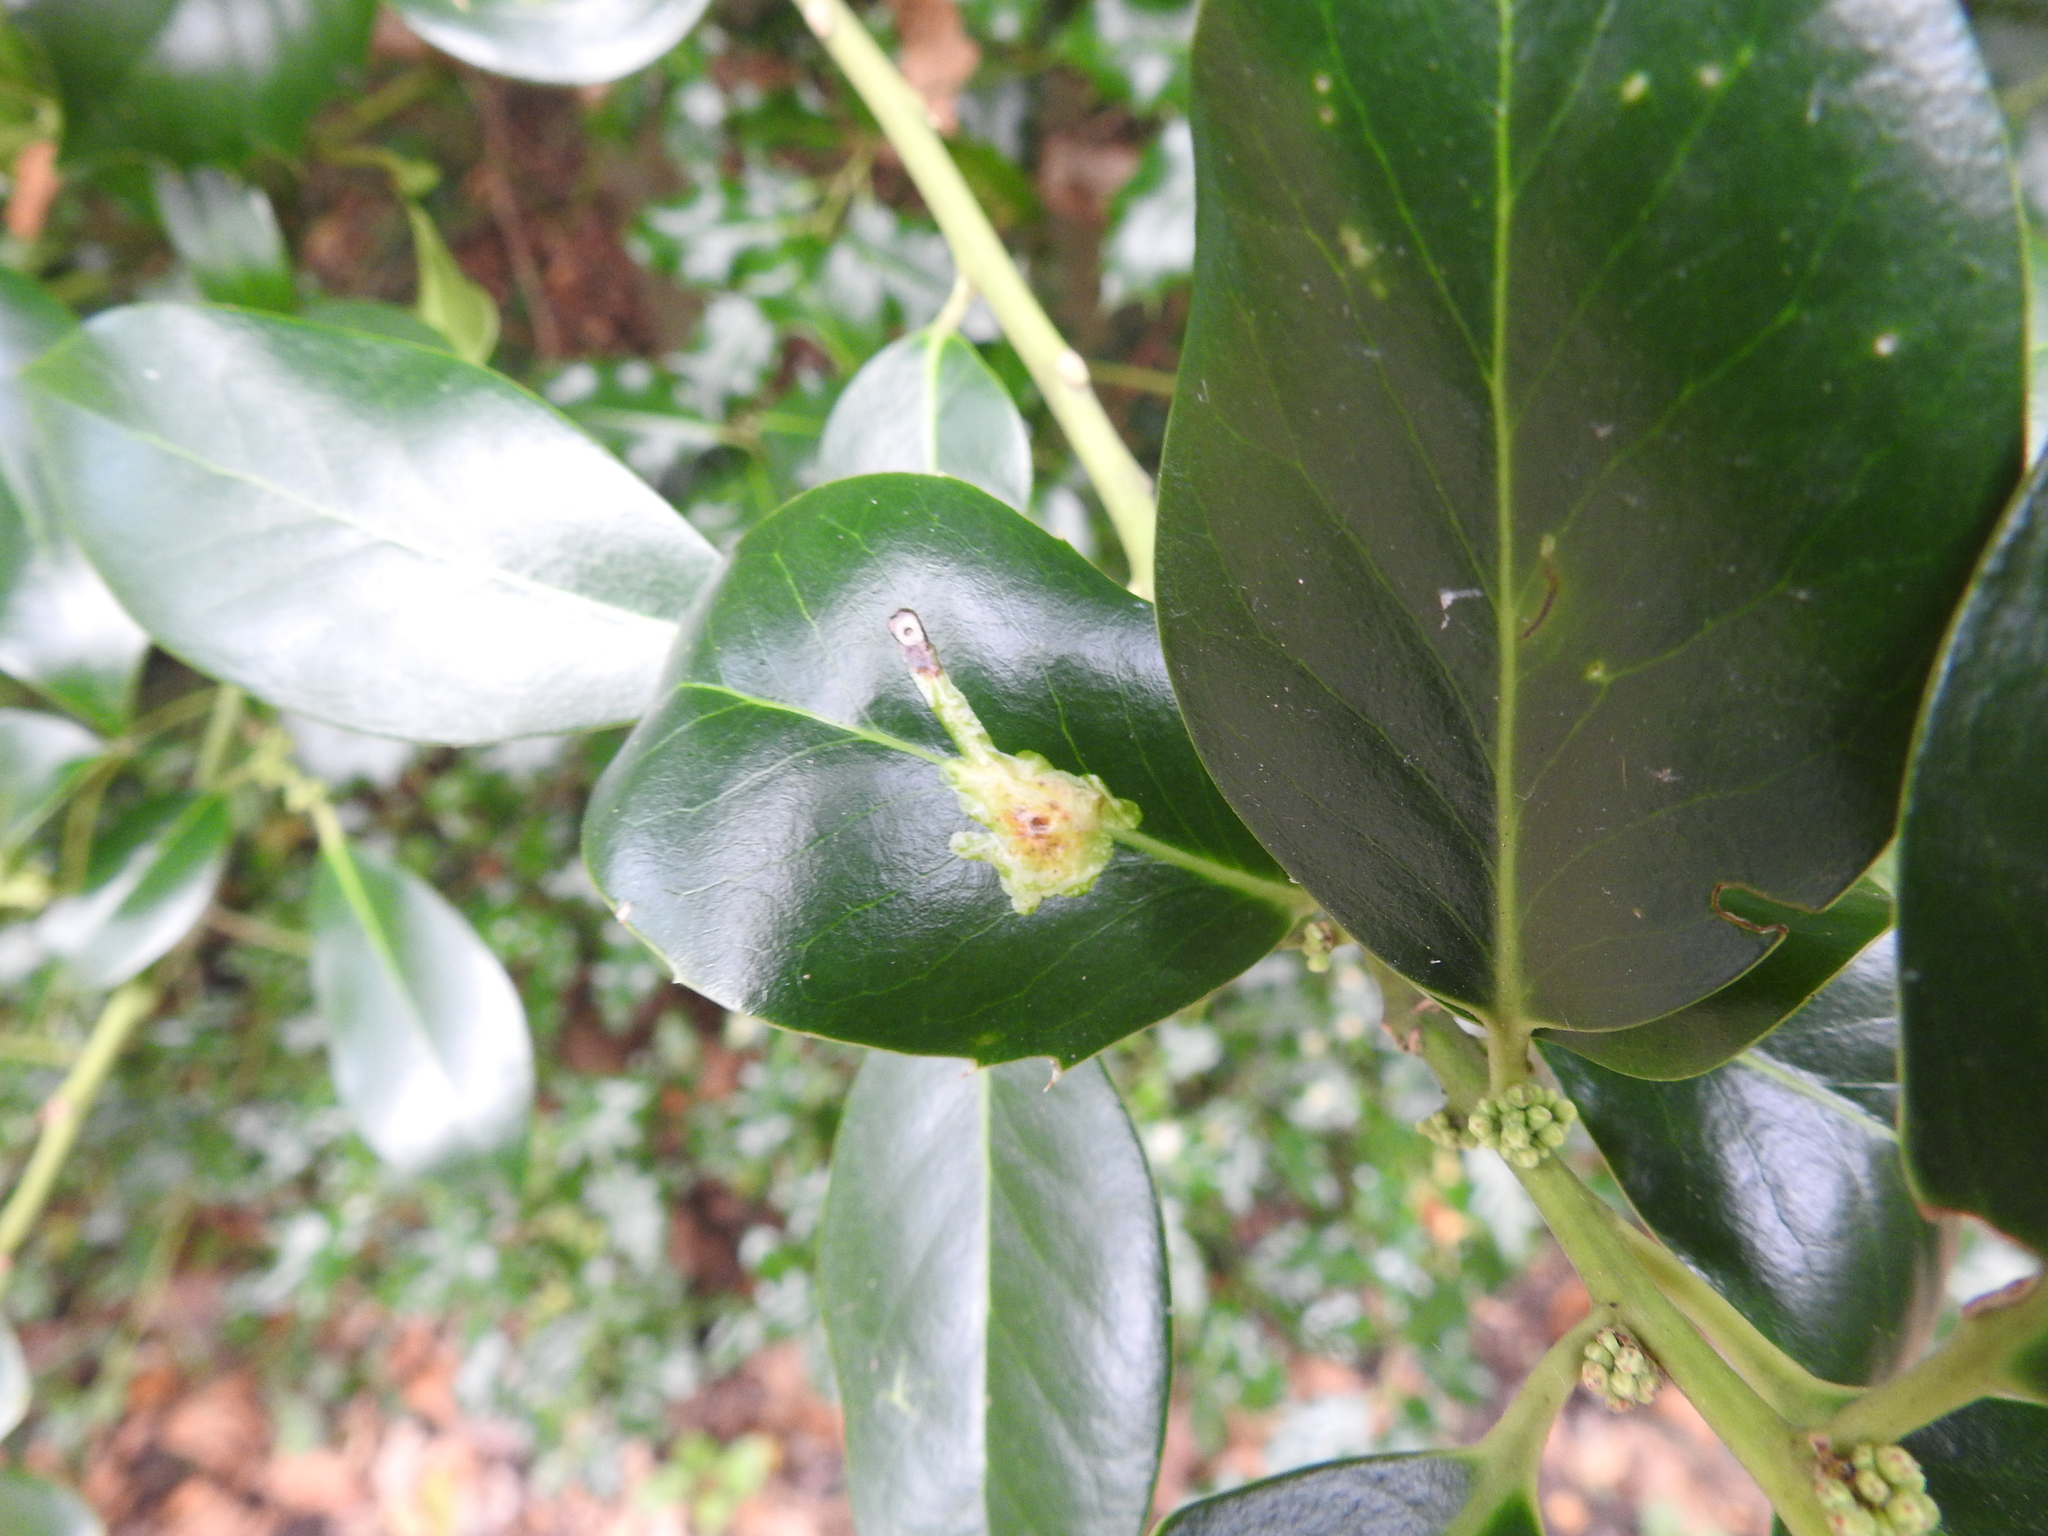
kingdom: Animalia
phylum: Arthropoda
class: Insecta
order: Diptera
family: Agromyzidae
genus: Phytomyza
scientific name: Phytomyza ilicis
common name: Holly leafminer
